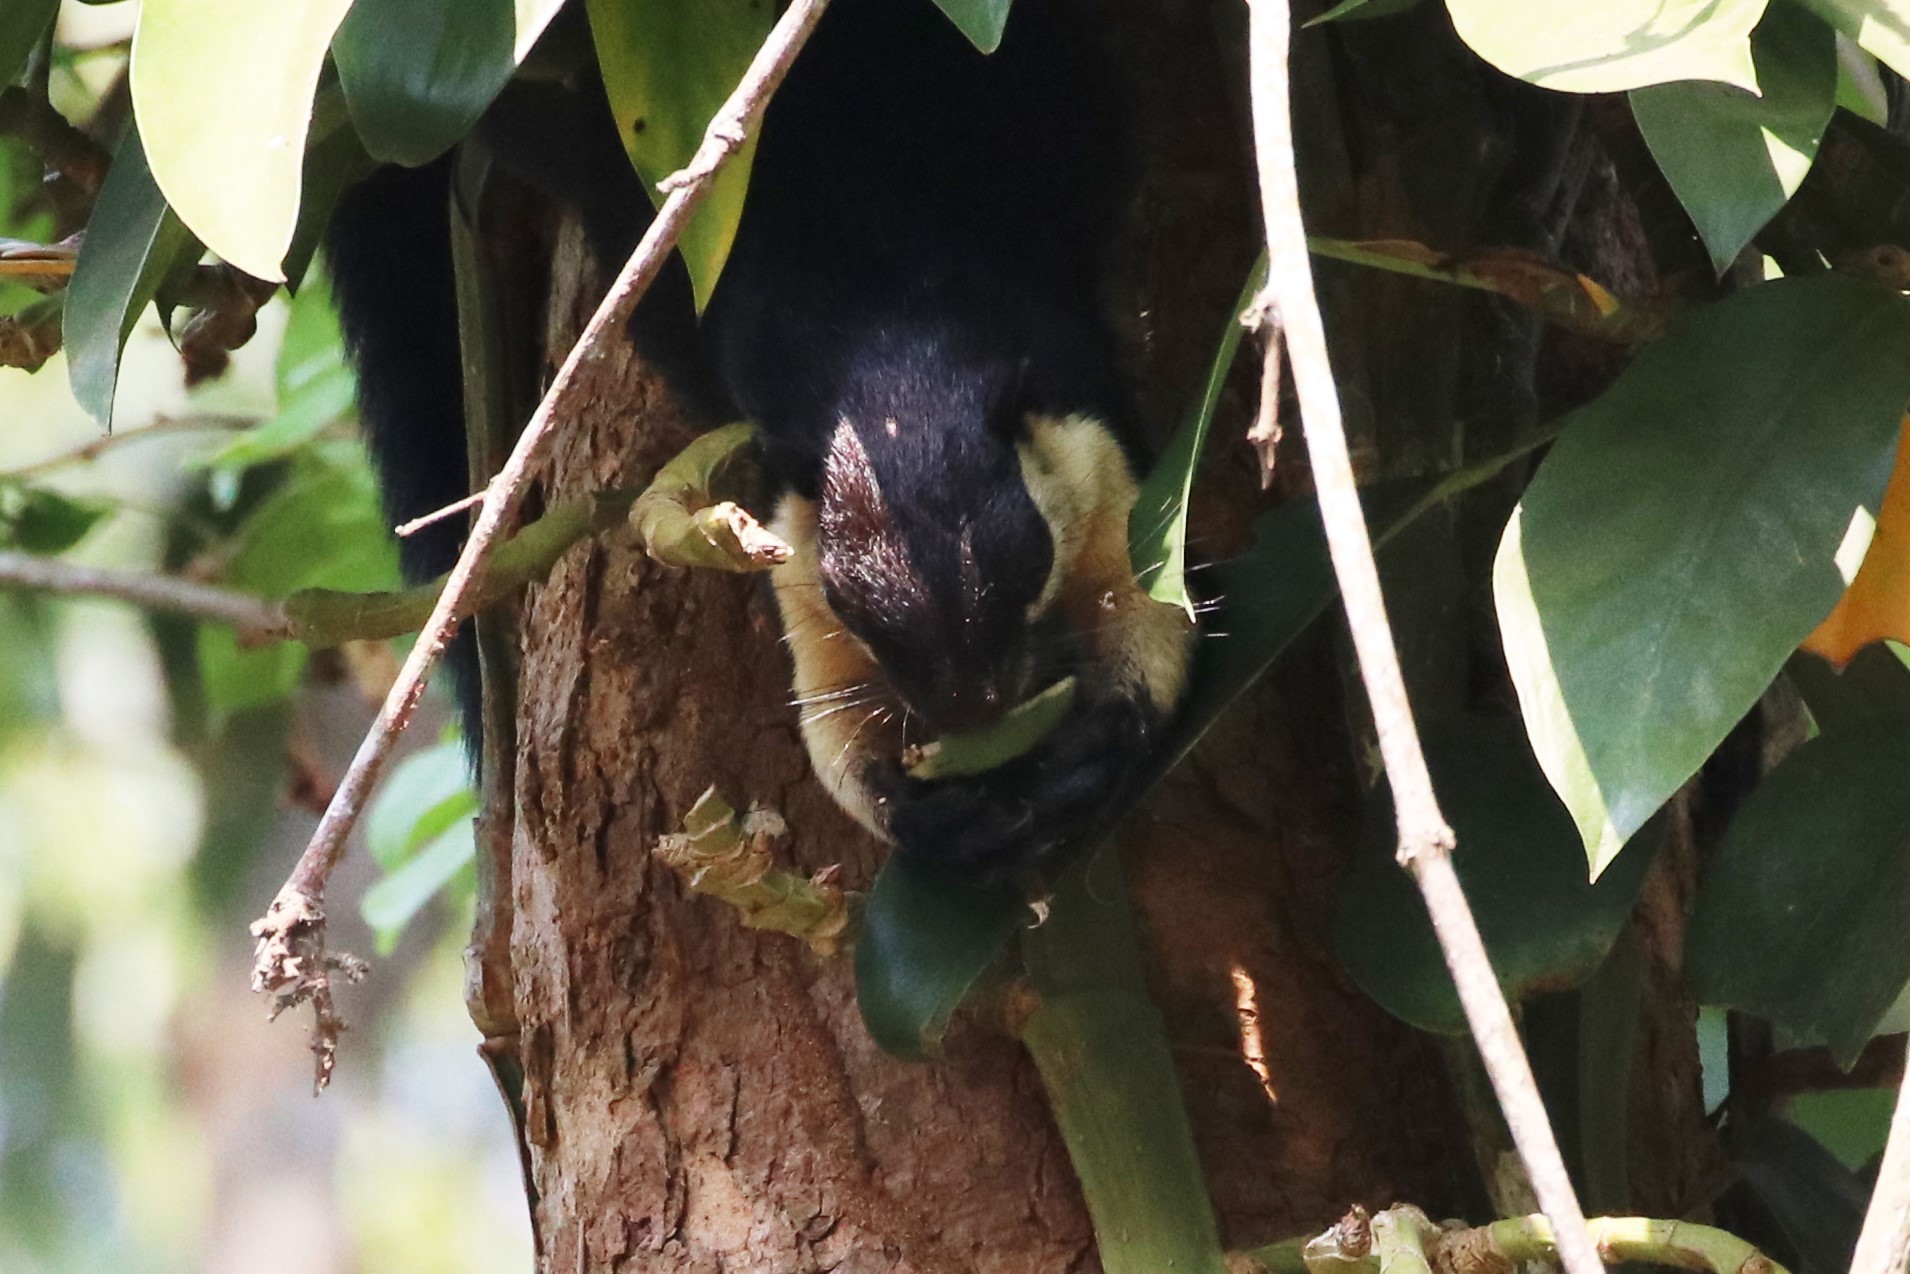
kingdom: Animalia
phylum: Chordata
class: Mammalia
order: Rodentia
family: Sciuridae
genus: Ratufa
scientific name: Ratufa bicolor
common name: Black giant squirrel
